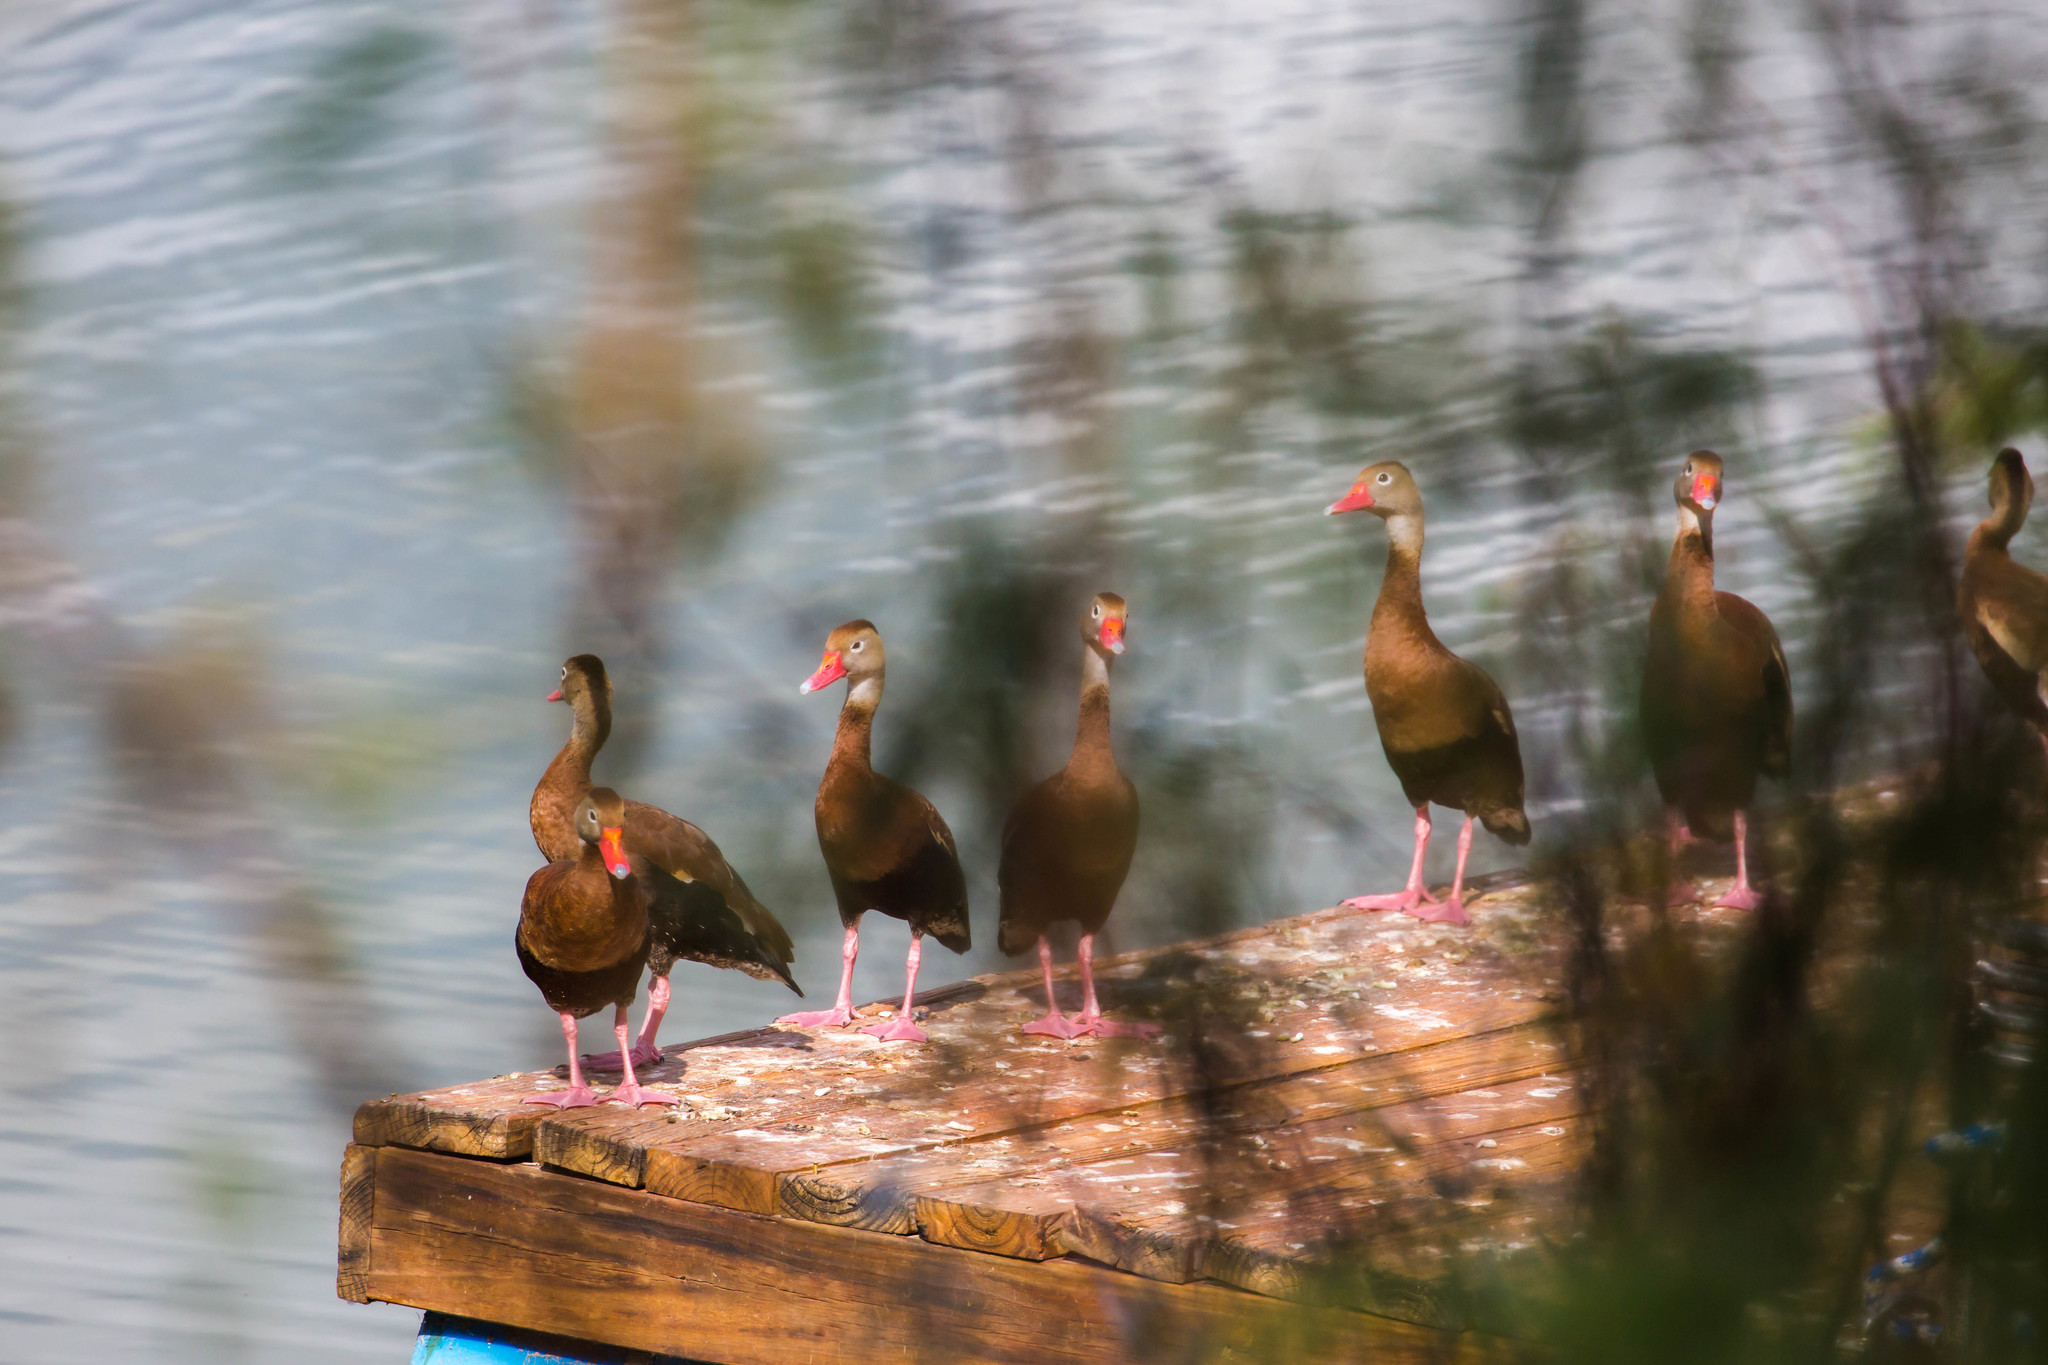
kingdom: Animalia
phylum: Chordata
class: Aves
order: Anseriformes
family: Anatidae
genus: Dendrocygna
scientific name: Dendrocygna autumnalis
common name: Black-bellied whistling duck
